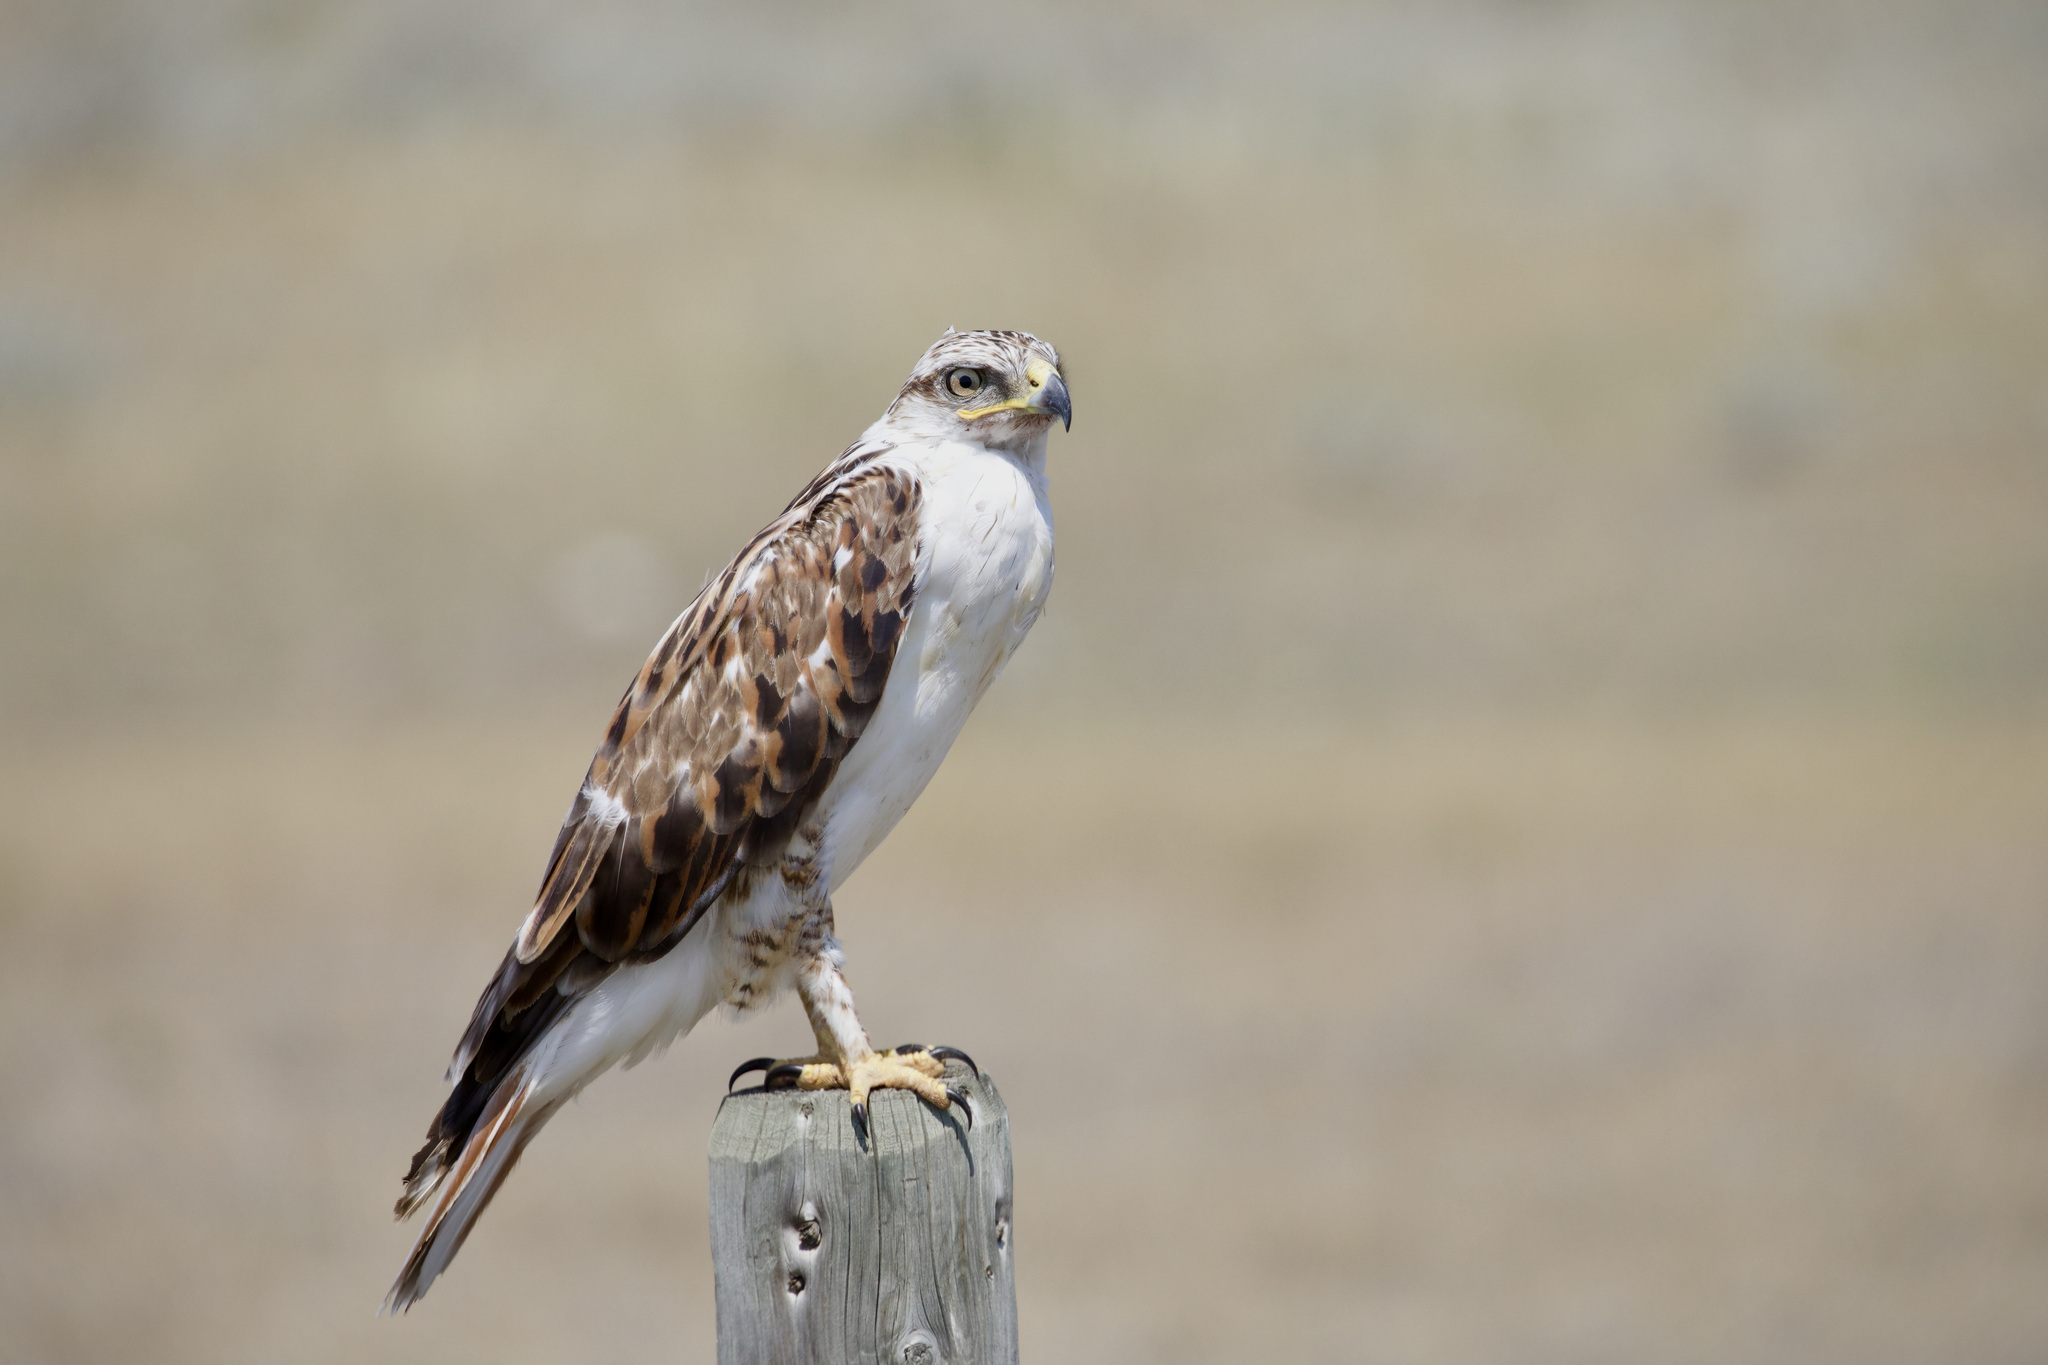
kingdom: Animalia
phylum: Chordata
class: Aves
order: Accipitriformes
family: Accipitridae
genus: Buteo
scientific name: Buteo regalis
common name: Ferruginous hawk
